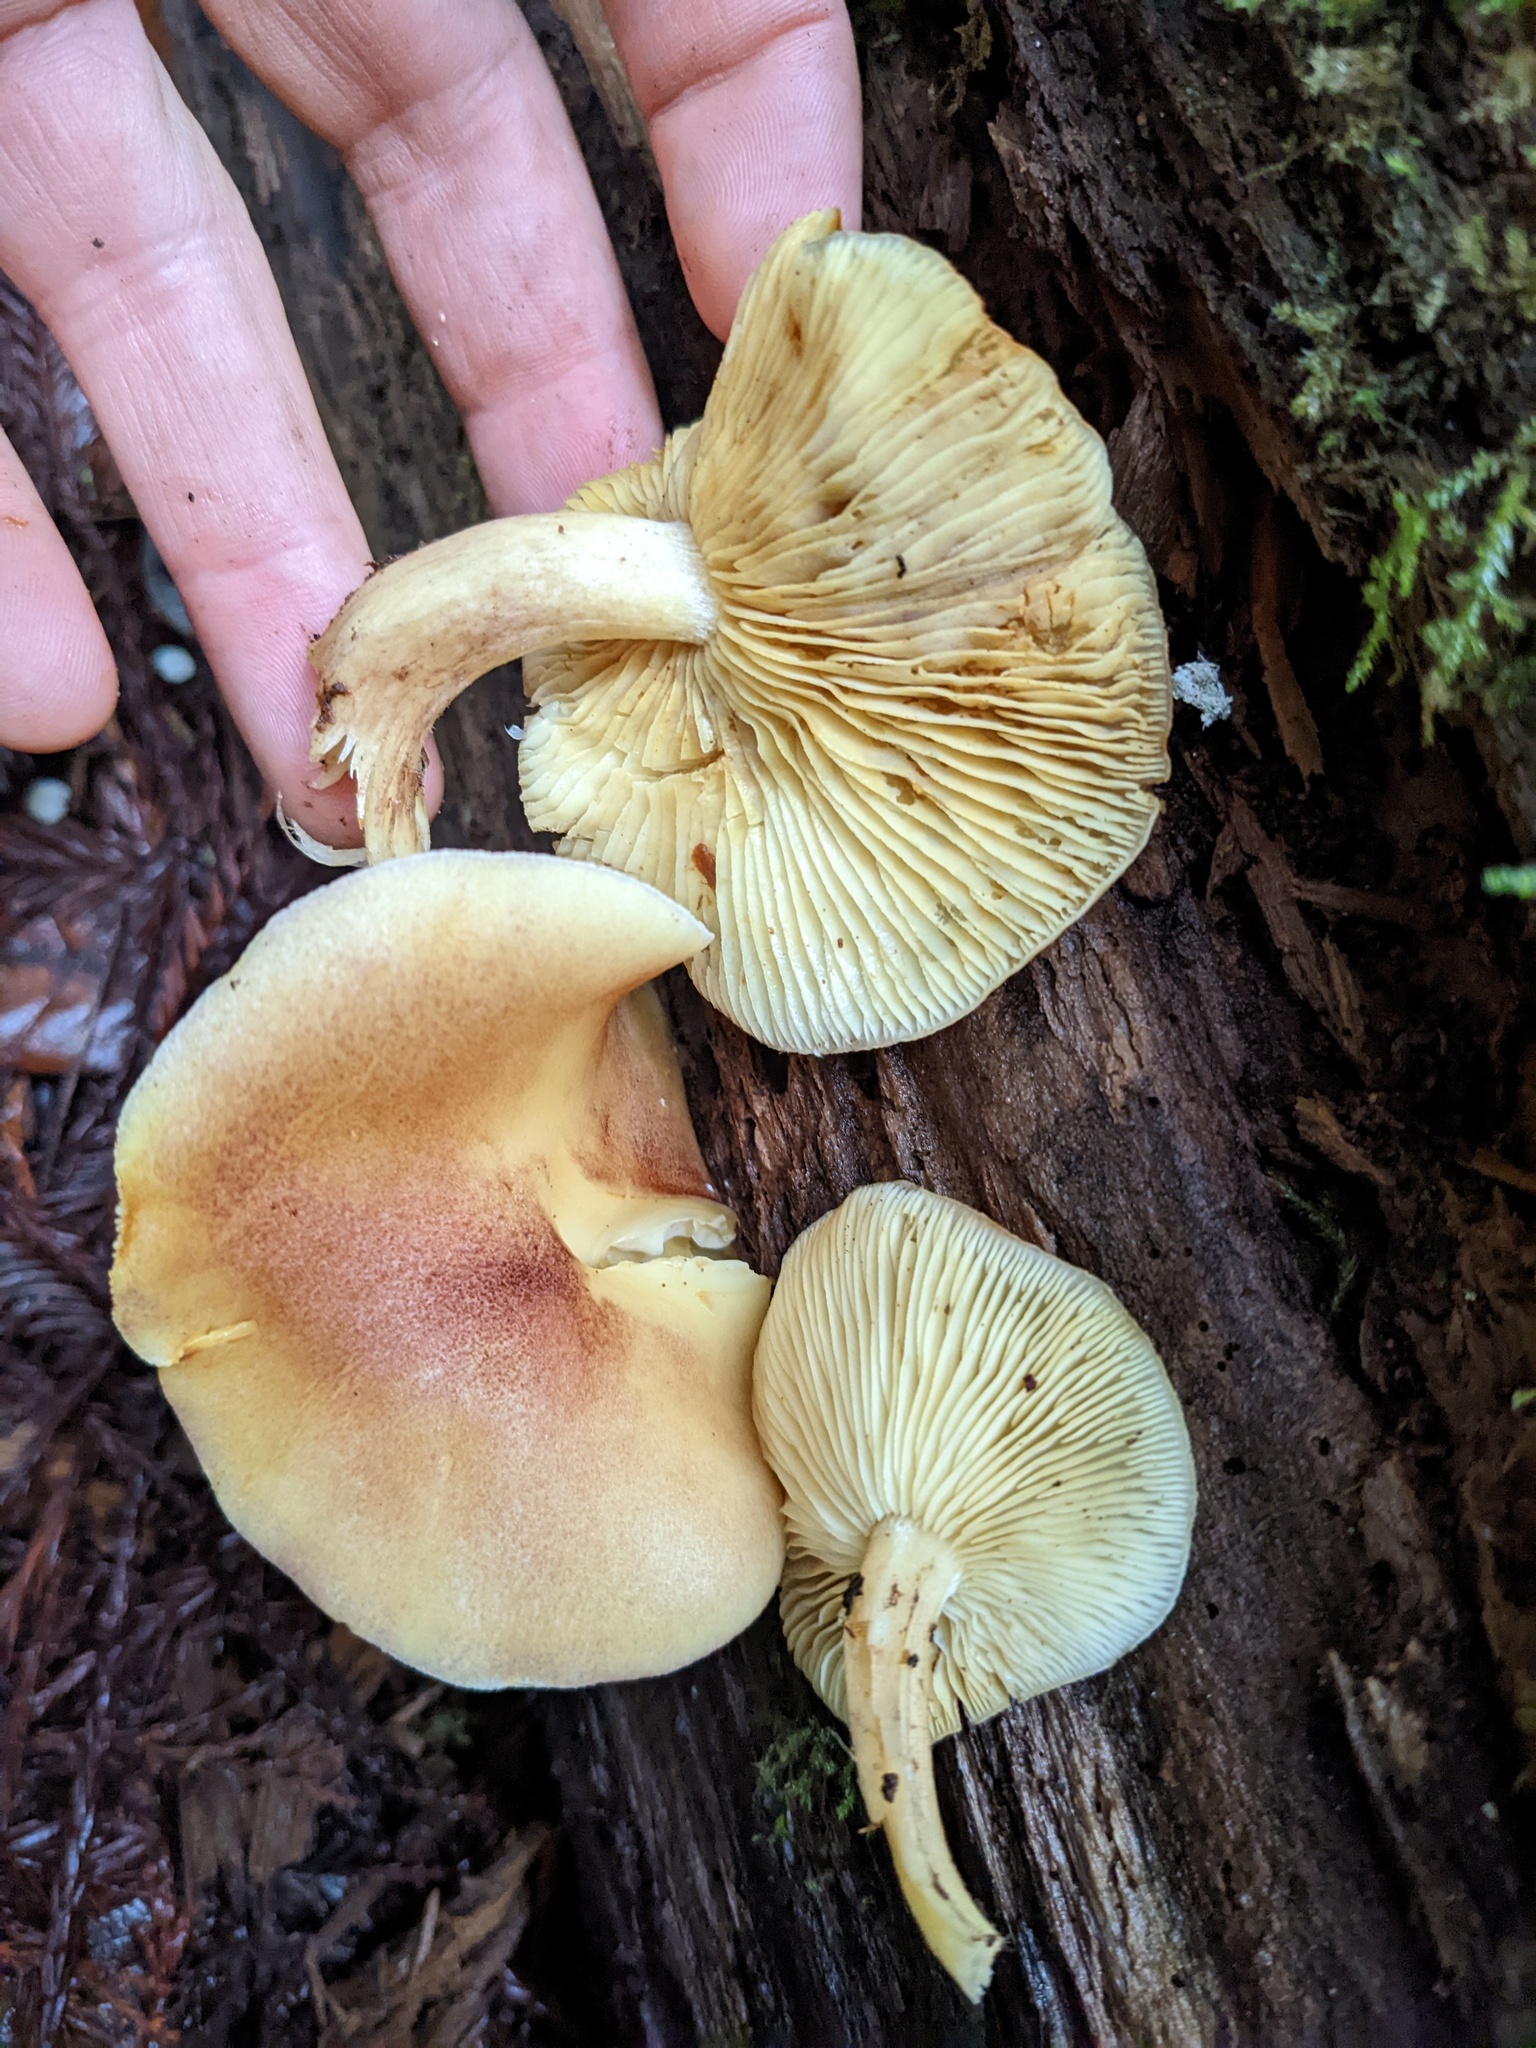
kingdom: Fungi
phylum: Basidiomycota
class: Agaricomycetes
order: Agaricales
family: Tricholomataceae
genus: Tricholomopsis
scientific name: Tricholomopsis rutilans
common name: Plums and custard
